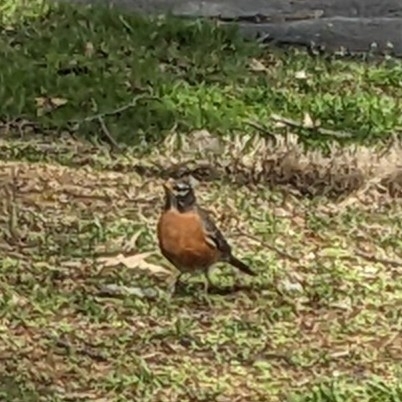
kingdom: Animalia
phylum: Chordata
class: Aves
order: Passeriformes
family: Turdidae
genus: Turdus
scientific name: Turdus migratorius
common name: American robin
